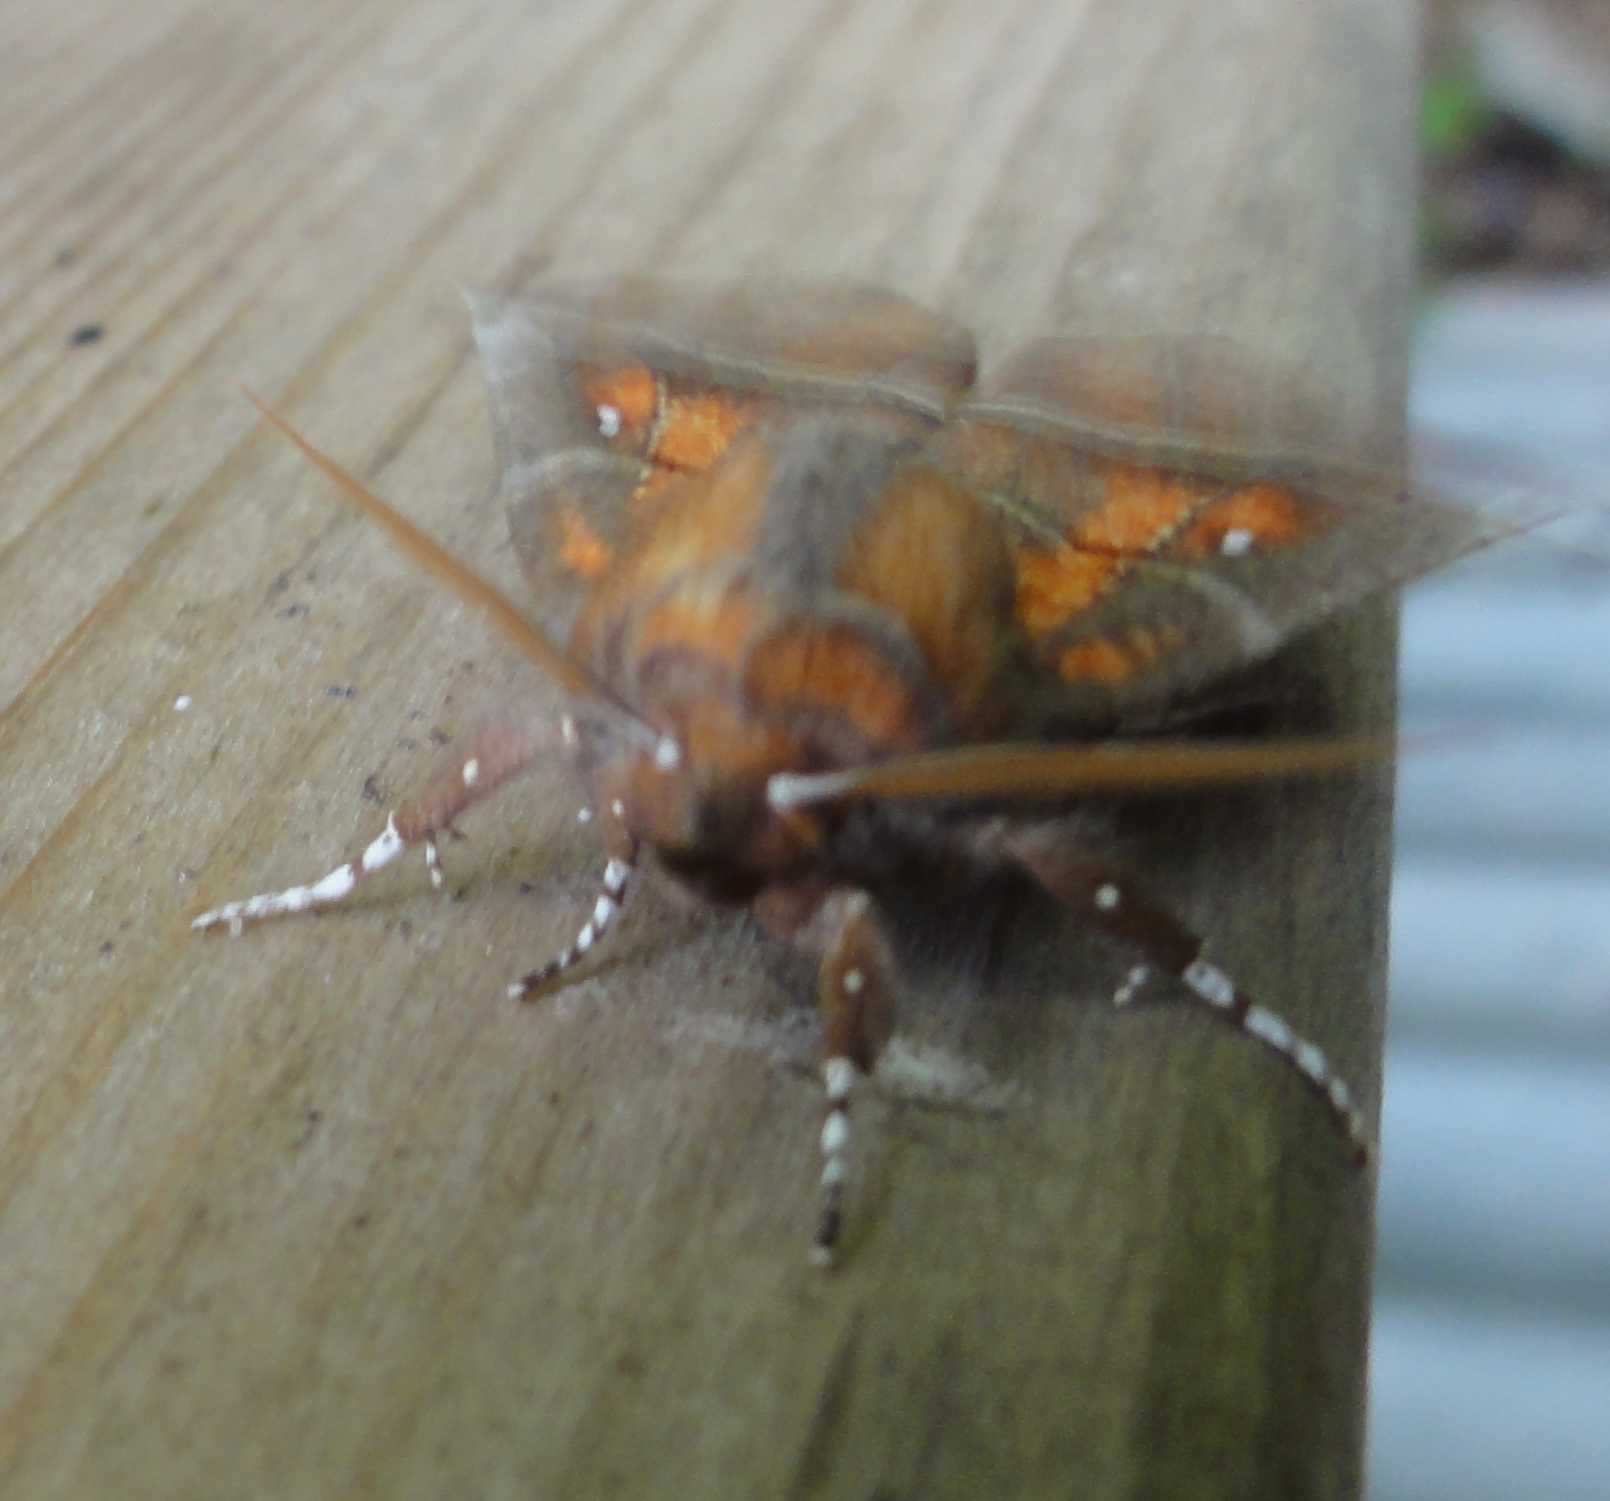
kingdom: Animalia
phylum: Arthropoda
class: Insecta
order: Lepidoptera
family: Erebidae
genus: Scoliopteryx
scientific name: Scoliopteryx libatrix
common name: Herald
